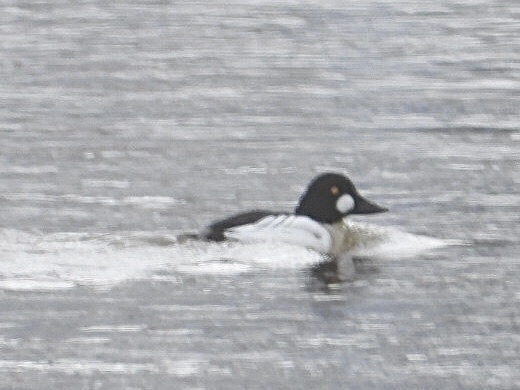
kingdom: Animalia
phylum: Chordata
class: Aves
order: Anseriformes
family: Anatidae
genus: Bucephala
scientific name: Bucephala clangula
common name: Common goldeneye
